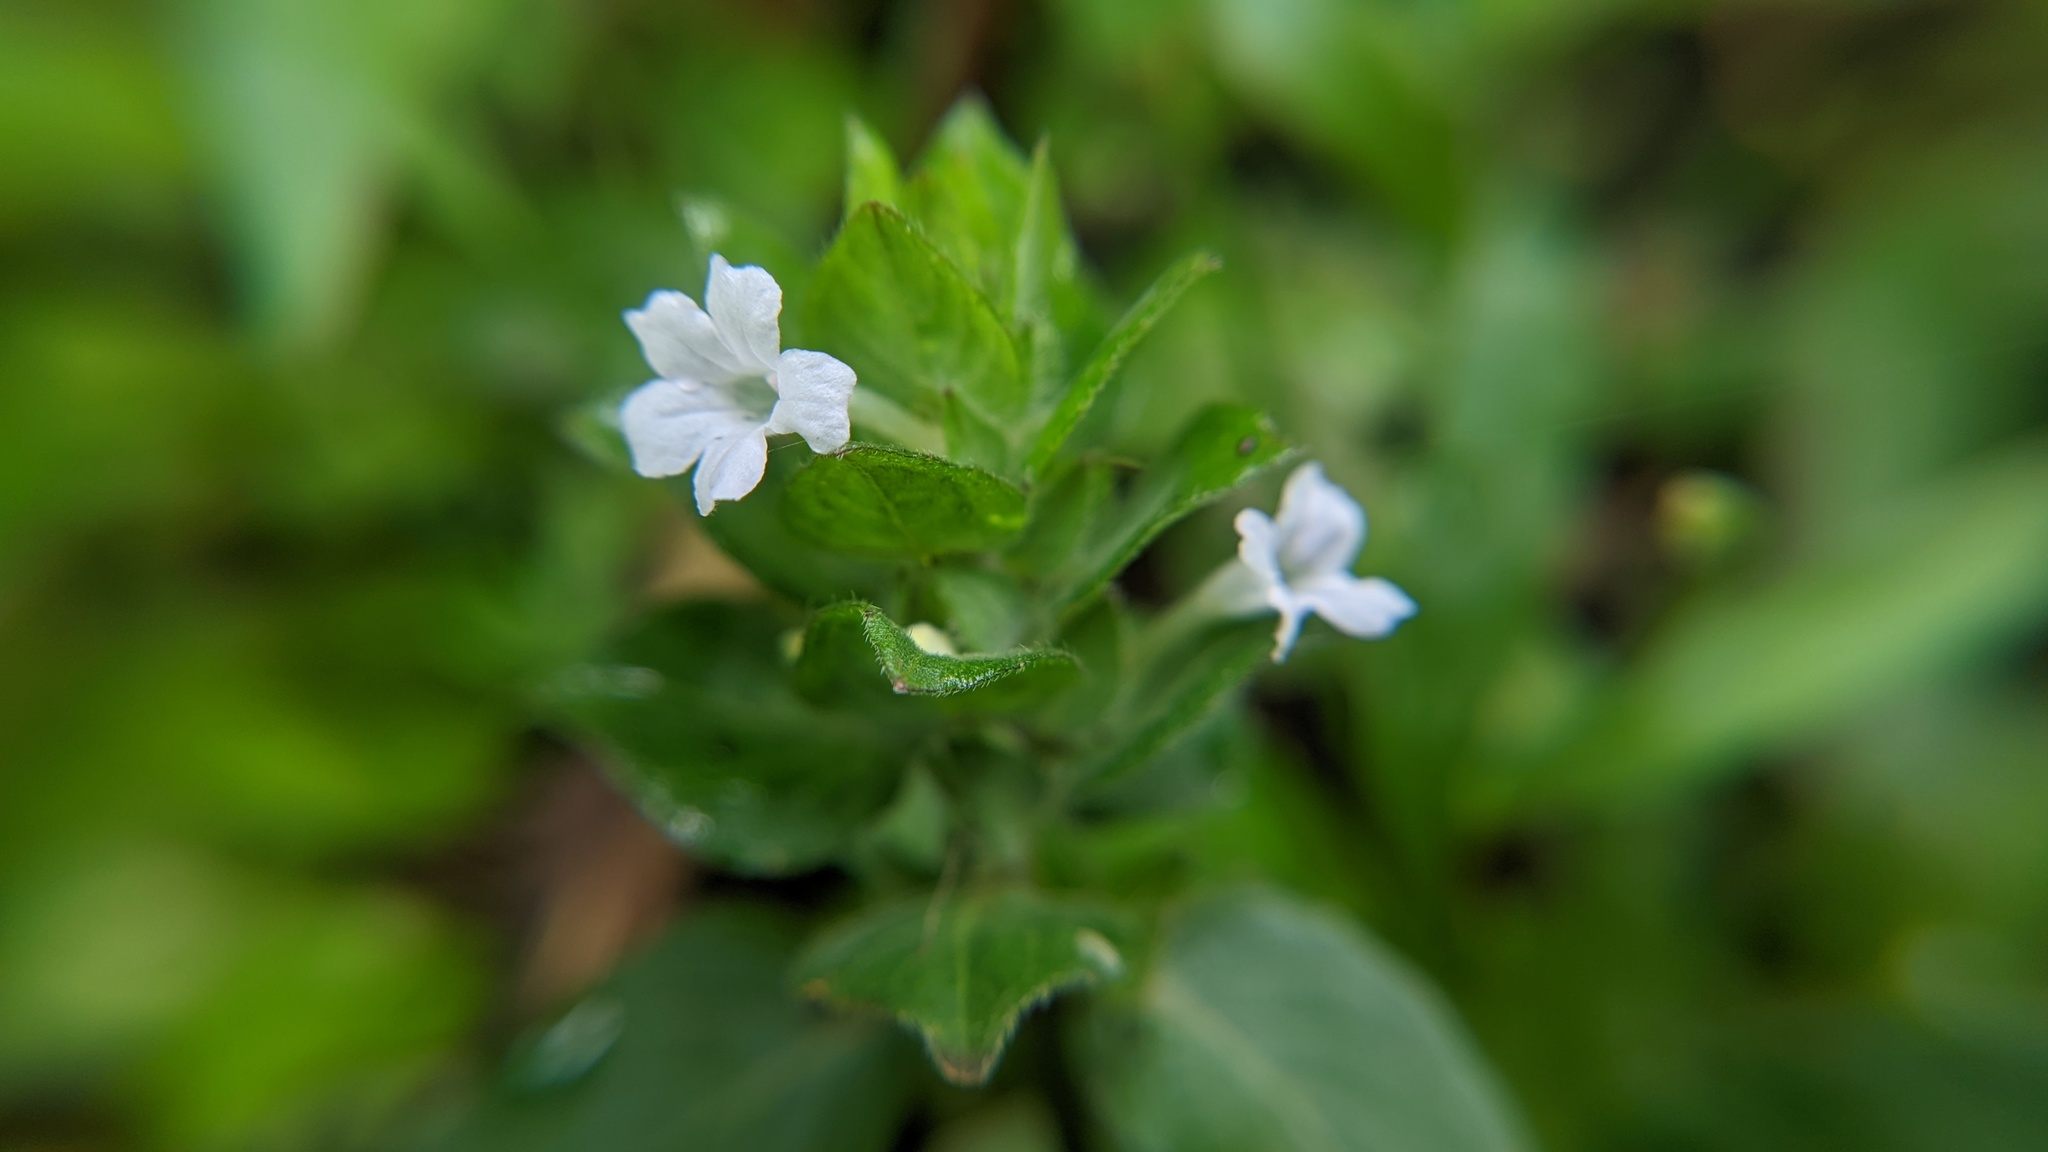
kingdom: Plantae
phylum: Tracheophyta
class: Magnoliopsida
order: Lamiales
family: Acanthaceae
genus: Ruellia
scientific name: Ruellia blechum
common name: Browne's blechum
